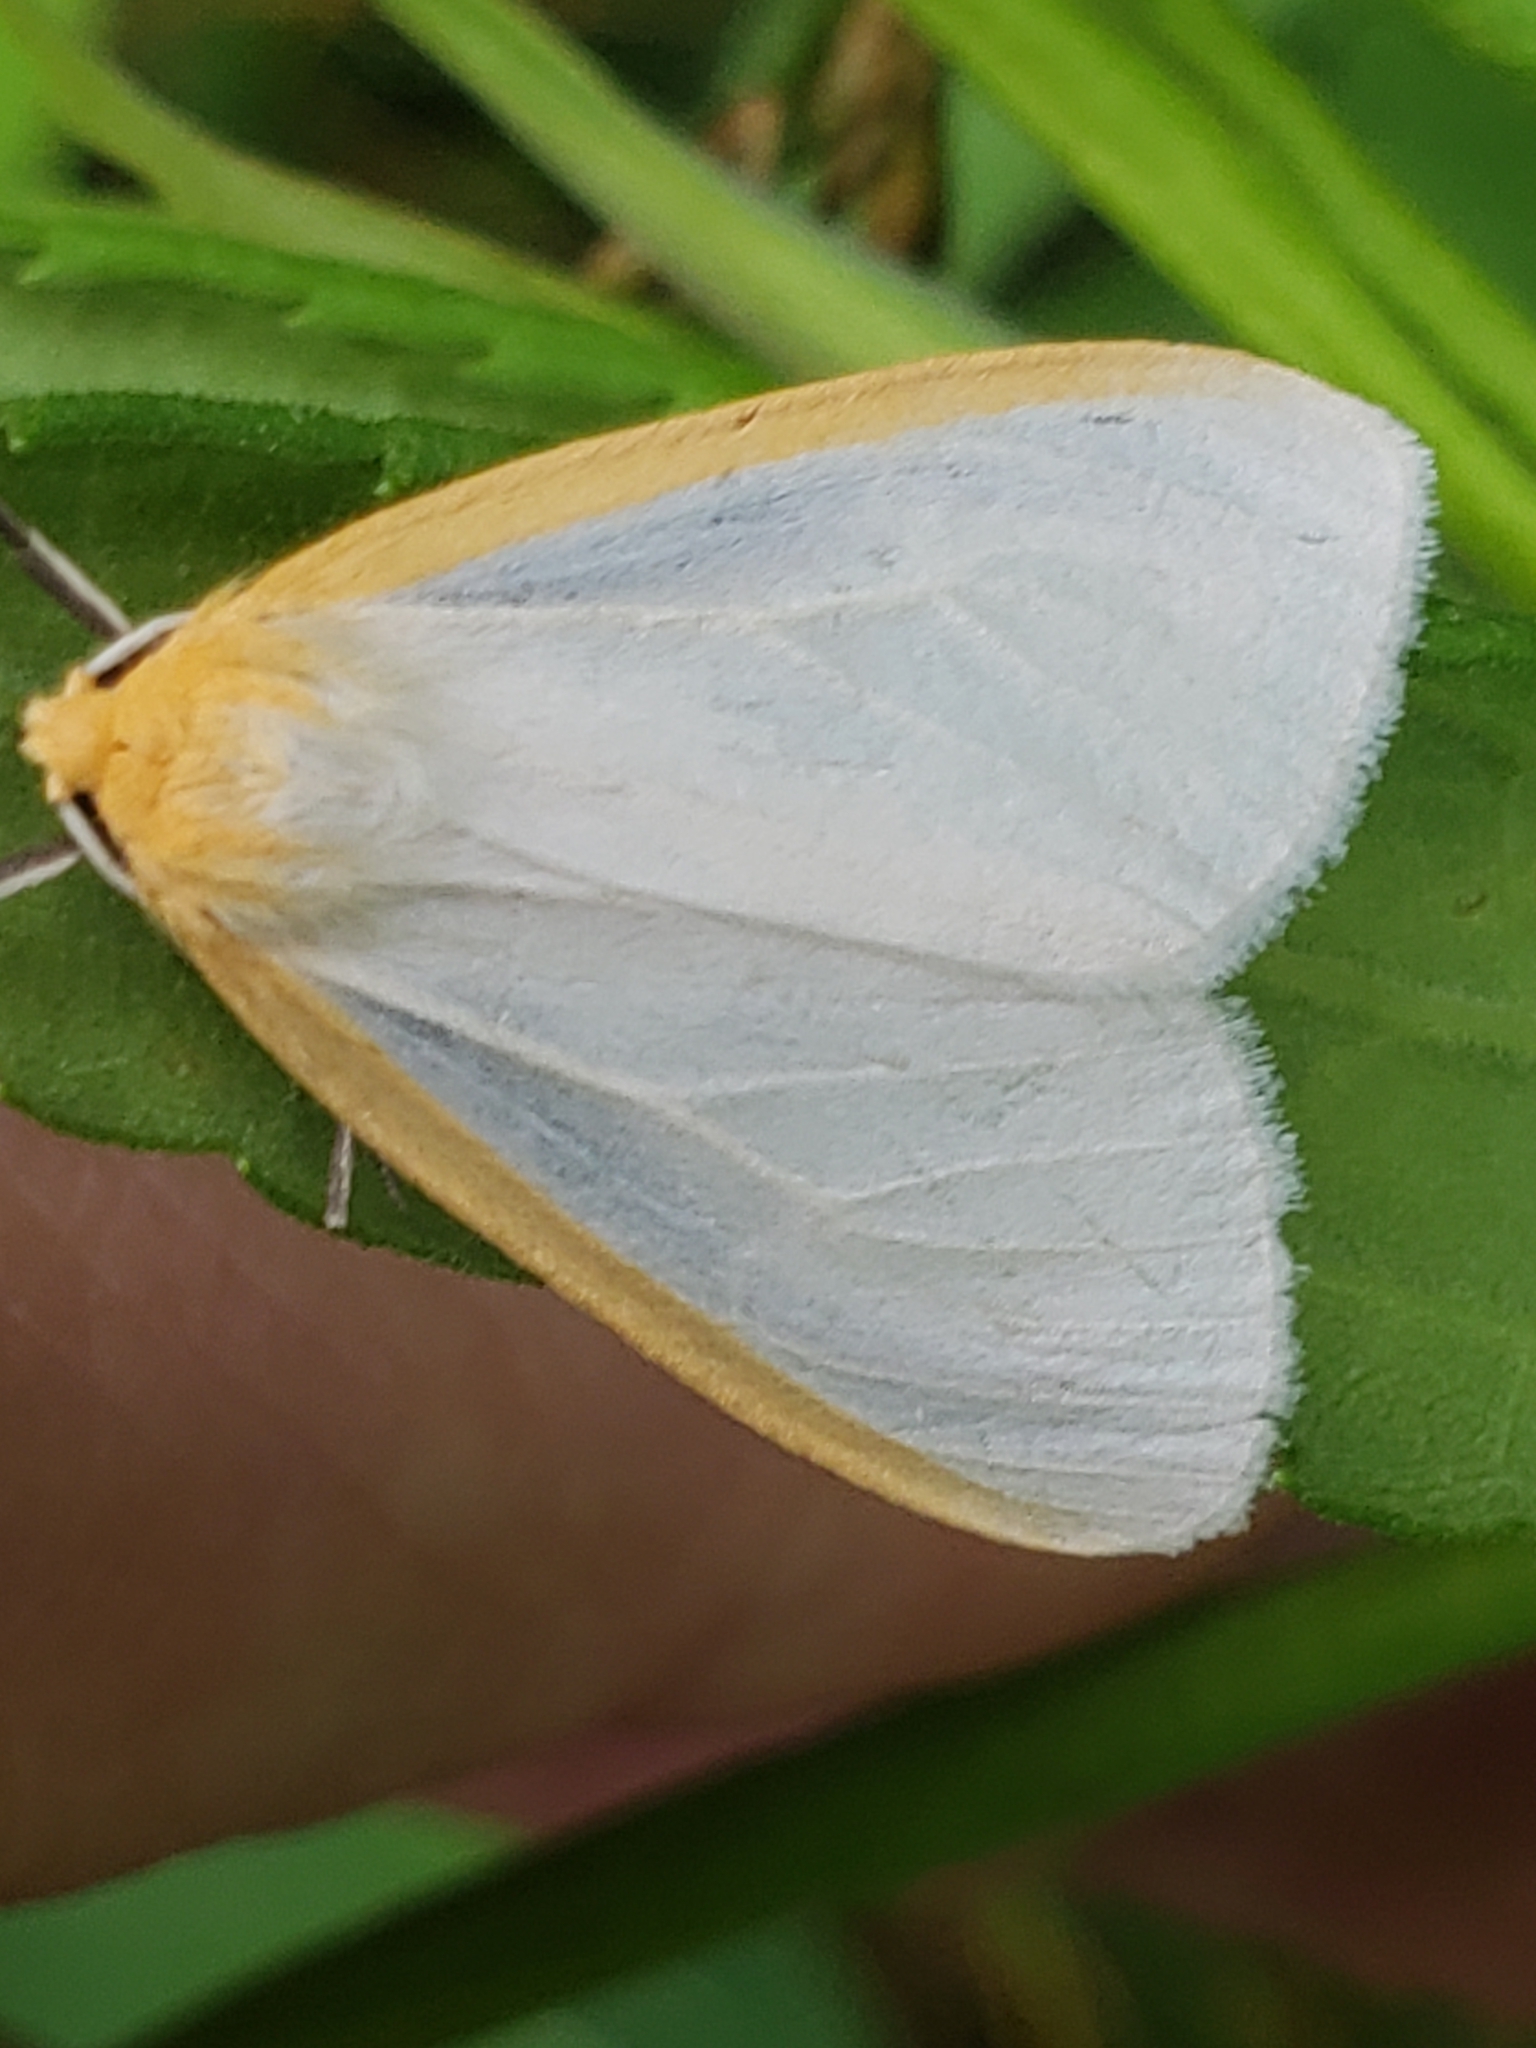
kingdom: Animalia
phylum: Arthropoda
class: Insecta
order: Lepidoptera
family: Erebidae
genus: Cycnia
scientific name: Cycnia tenera
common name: Delicate cycnia moth
